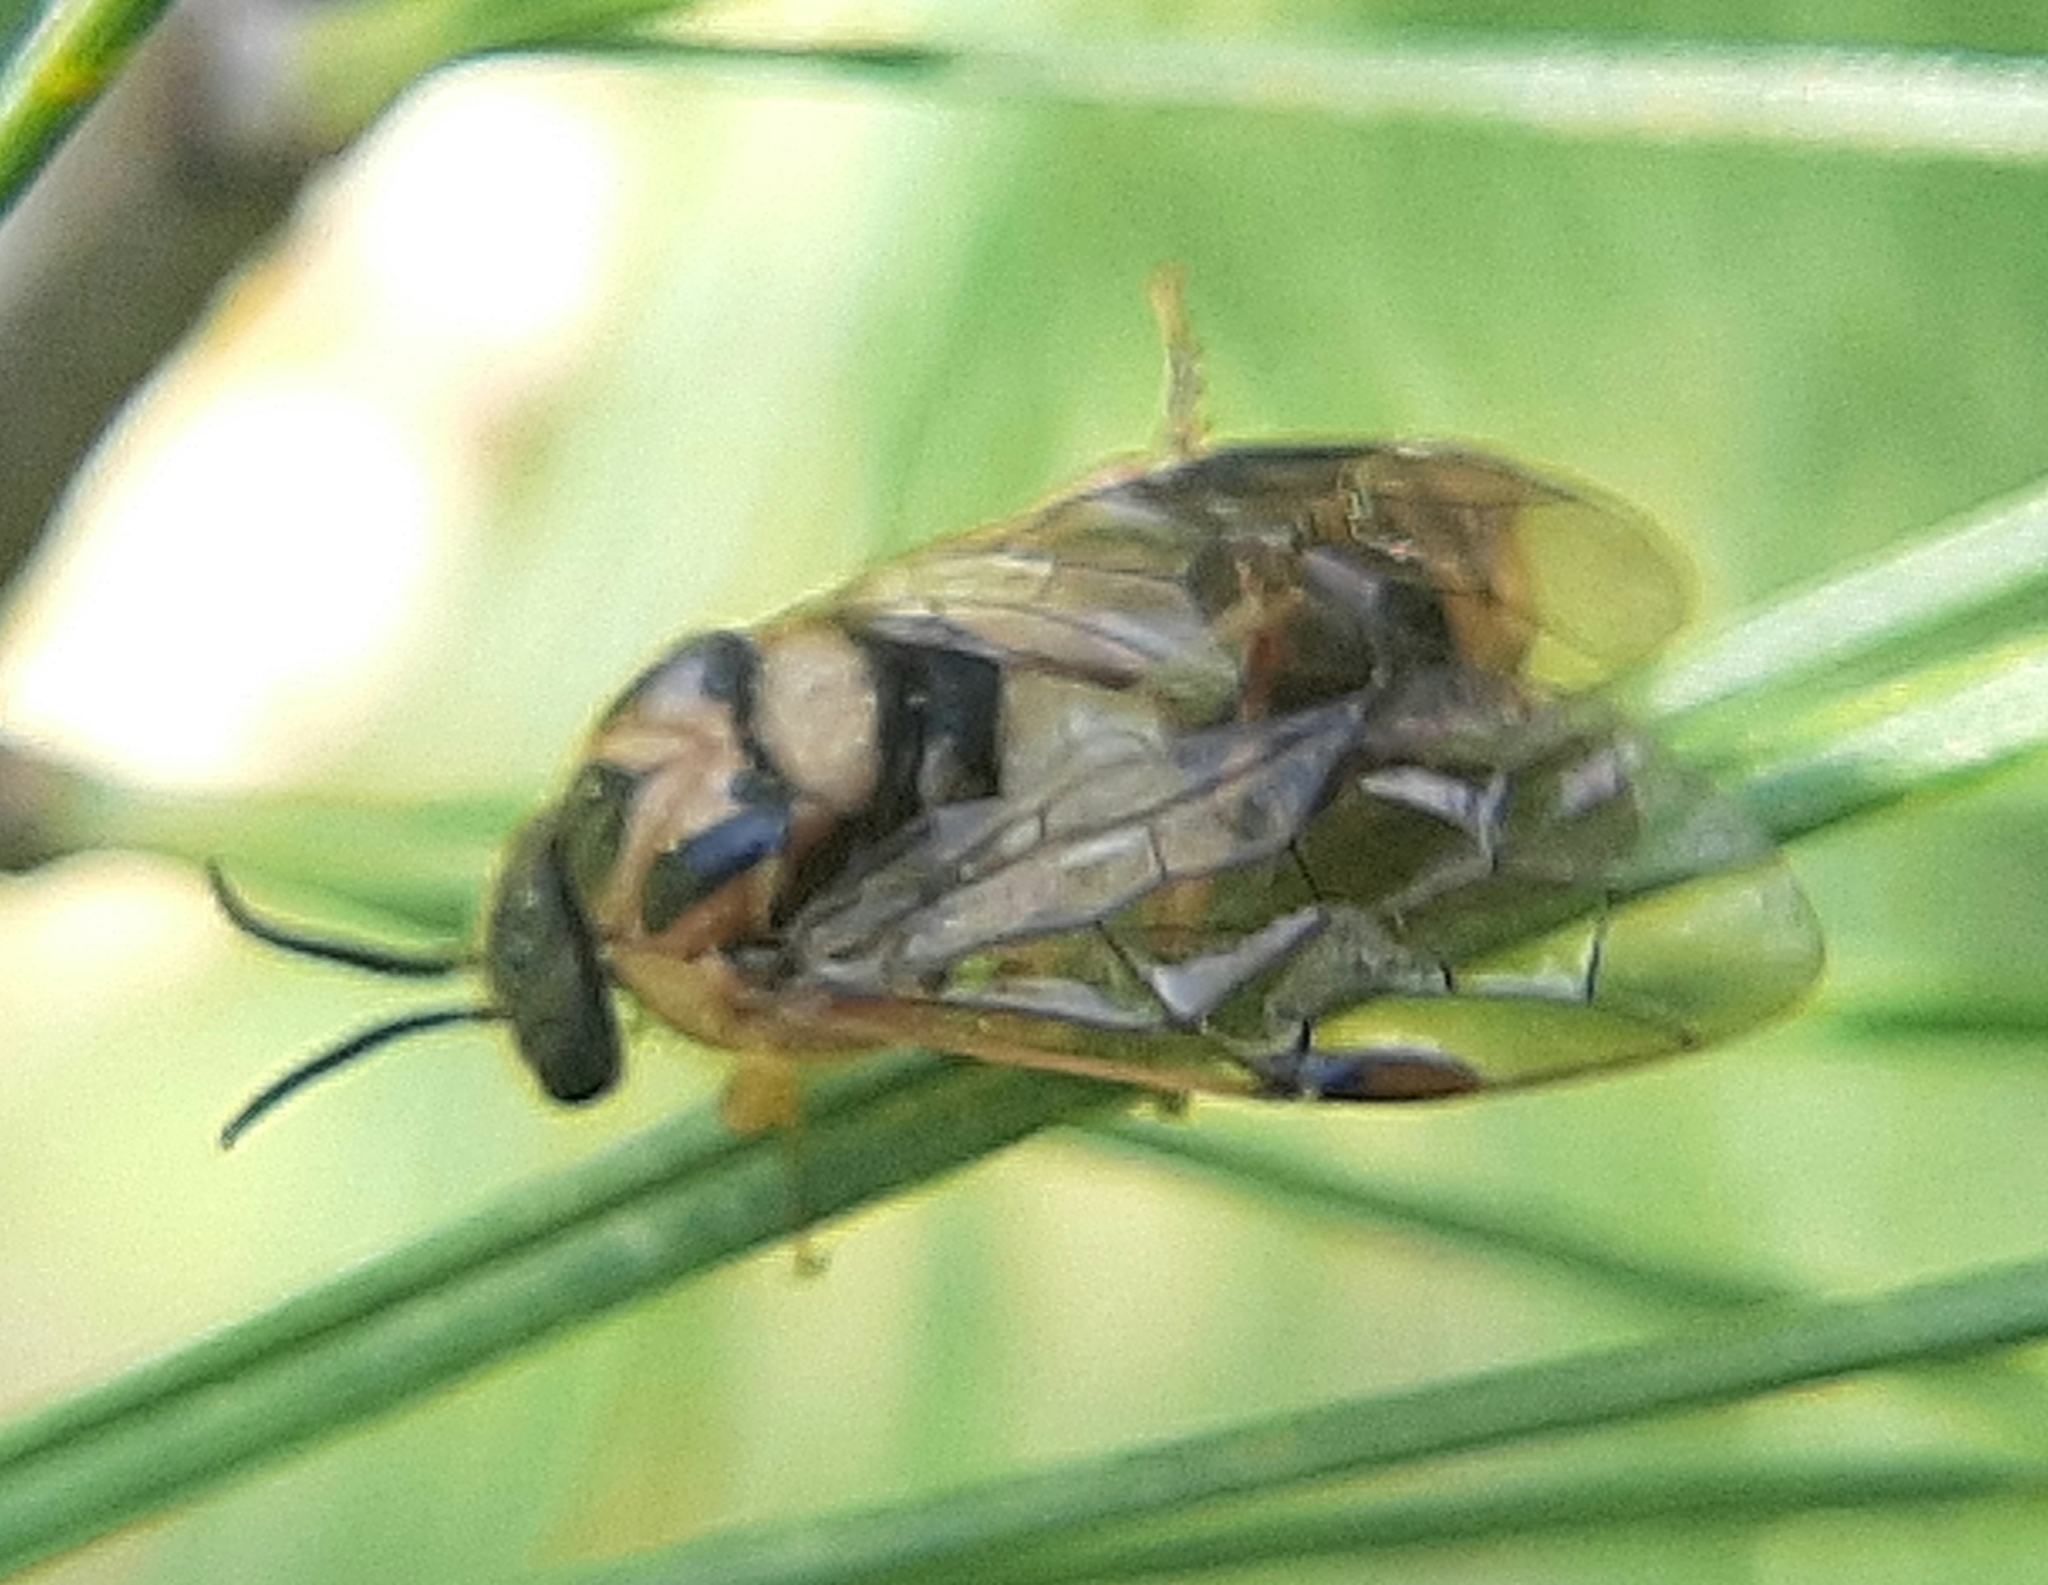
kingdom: Animalia
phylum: Arthropoda
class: Insecta
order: Hymenoptera
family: Diprionidae
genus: Diprion
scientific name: Diprion similis
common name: Pine sawfly
